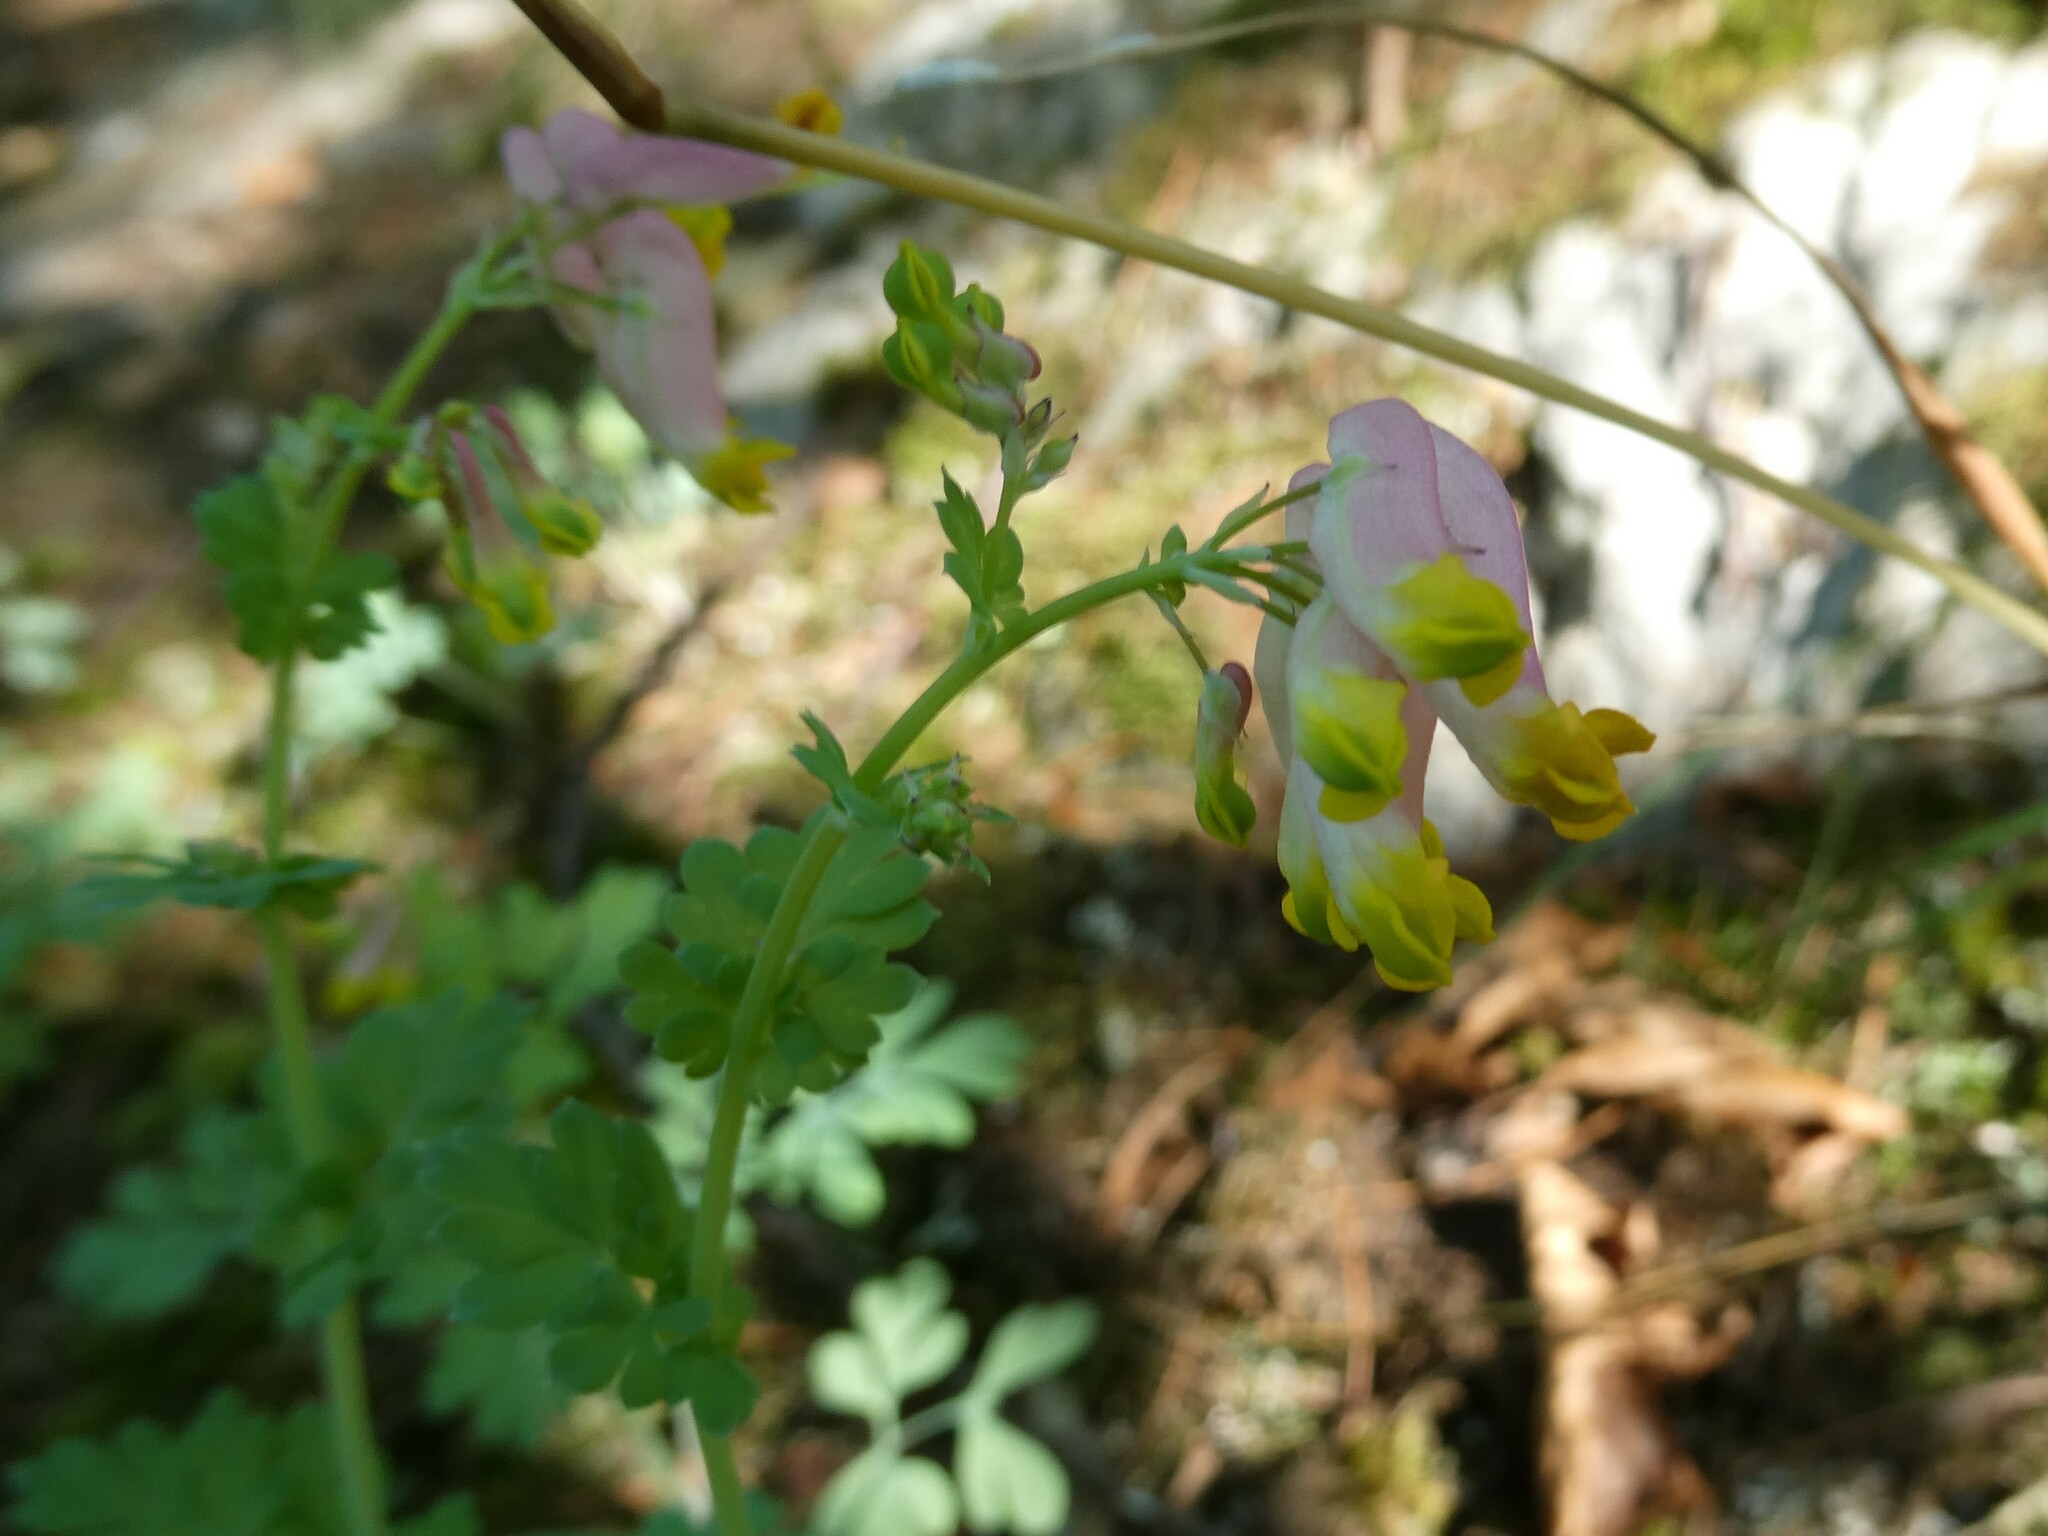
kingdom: Plantae
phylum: Tracheophyta
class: Magnoliopsida
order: Ranunculales
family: Papaveraceae
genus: Capnoides
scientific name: Capnoides sempervirens
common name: Rock harlequin
